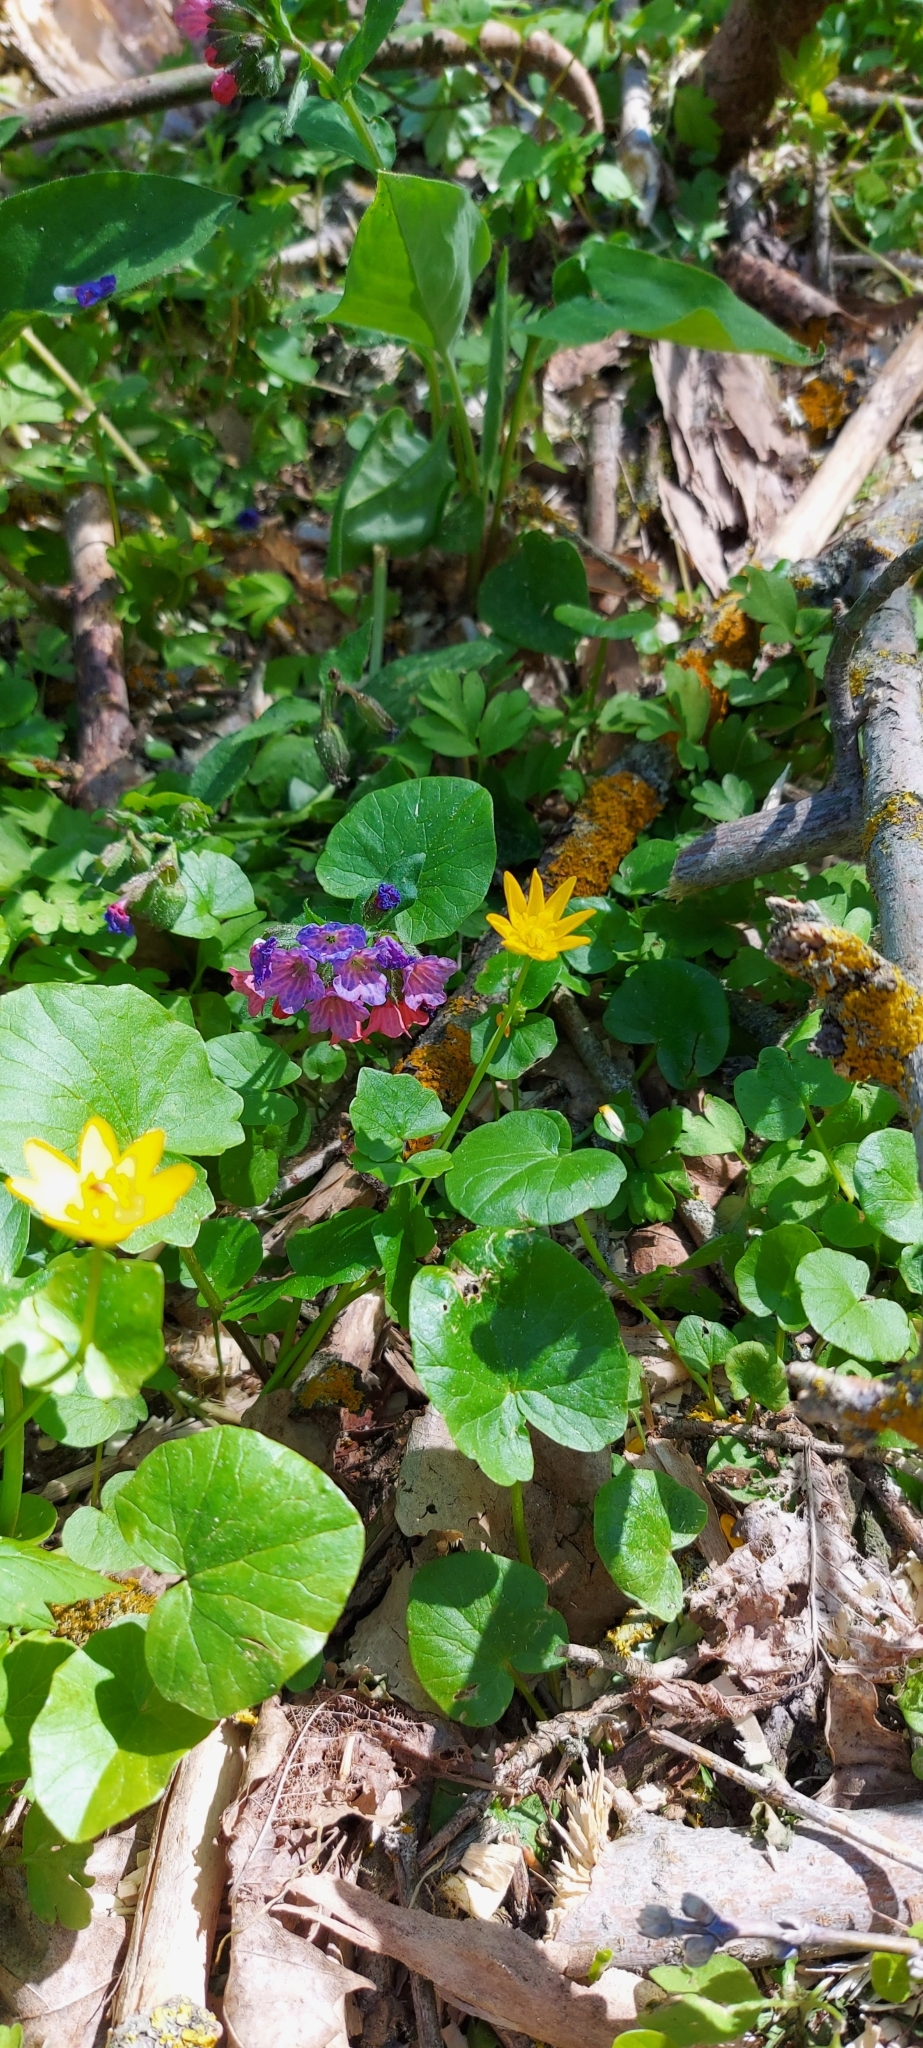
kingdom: Plantae
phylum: Tracheophyta
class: Magnoliopsida
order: Boraginales
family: Boraginaceae
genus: Pulmonaria
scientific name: Pulmonaria obscura
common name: Suffolk lungwort
